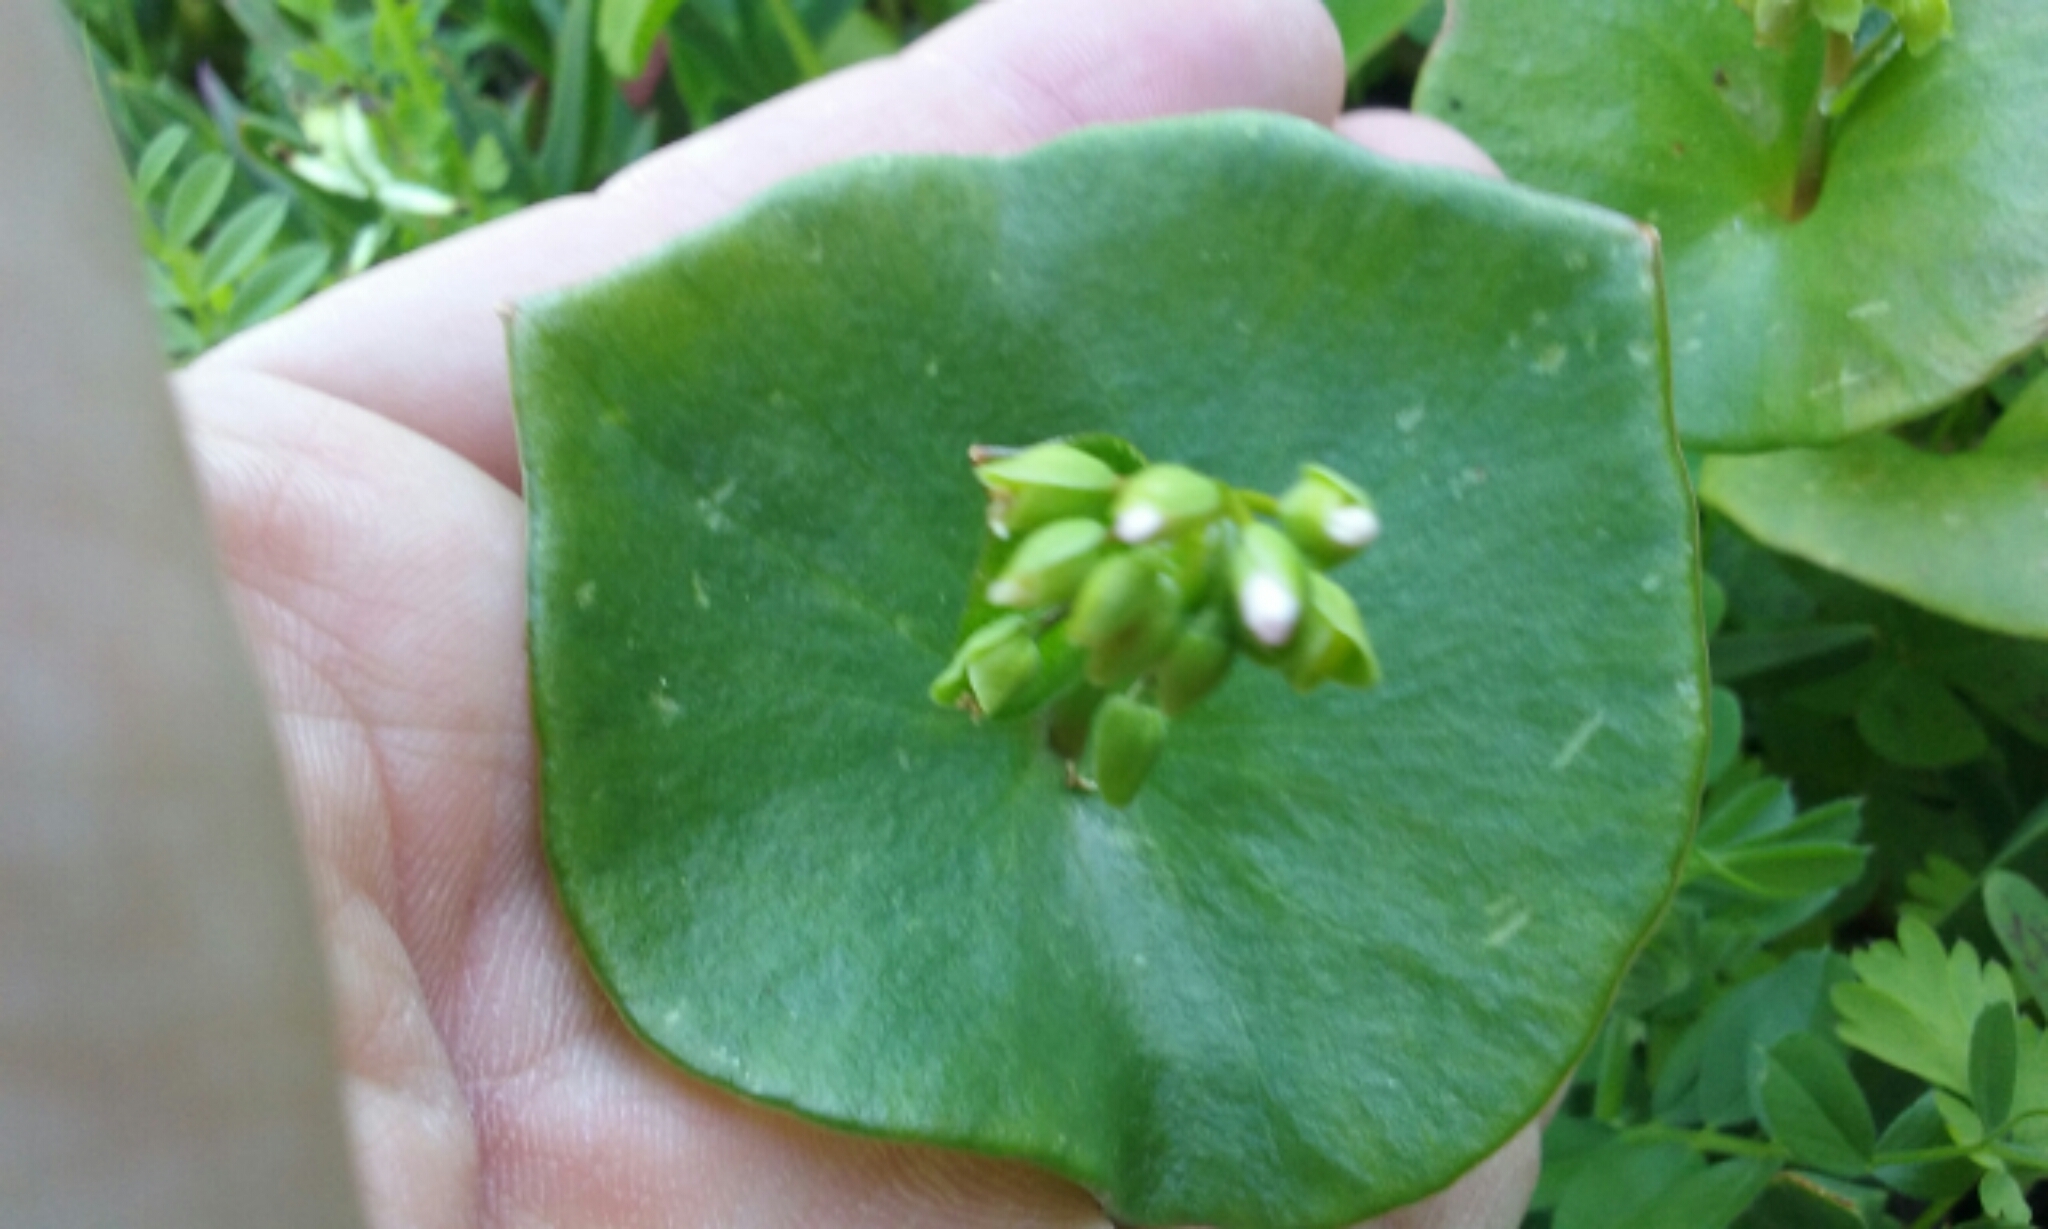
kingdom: Plantae
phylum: Tracheophyta
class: Magnoliopsida
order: Caryophyllales
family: Montiaceae
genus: Claytonia
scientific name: Claytonia perfoliata
